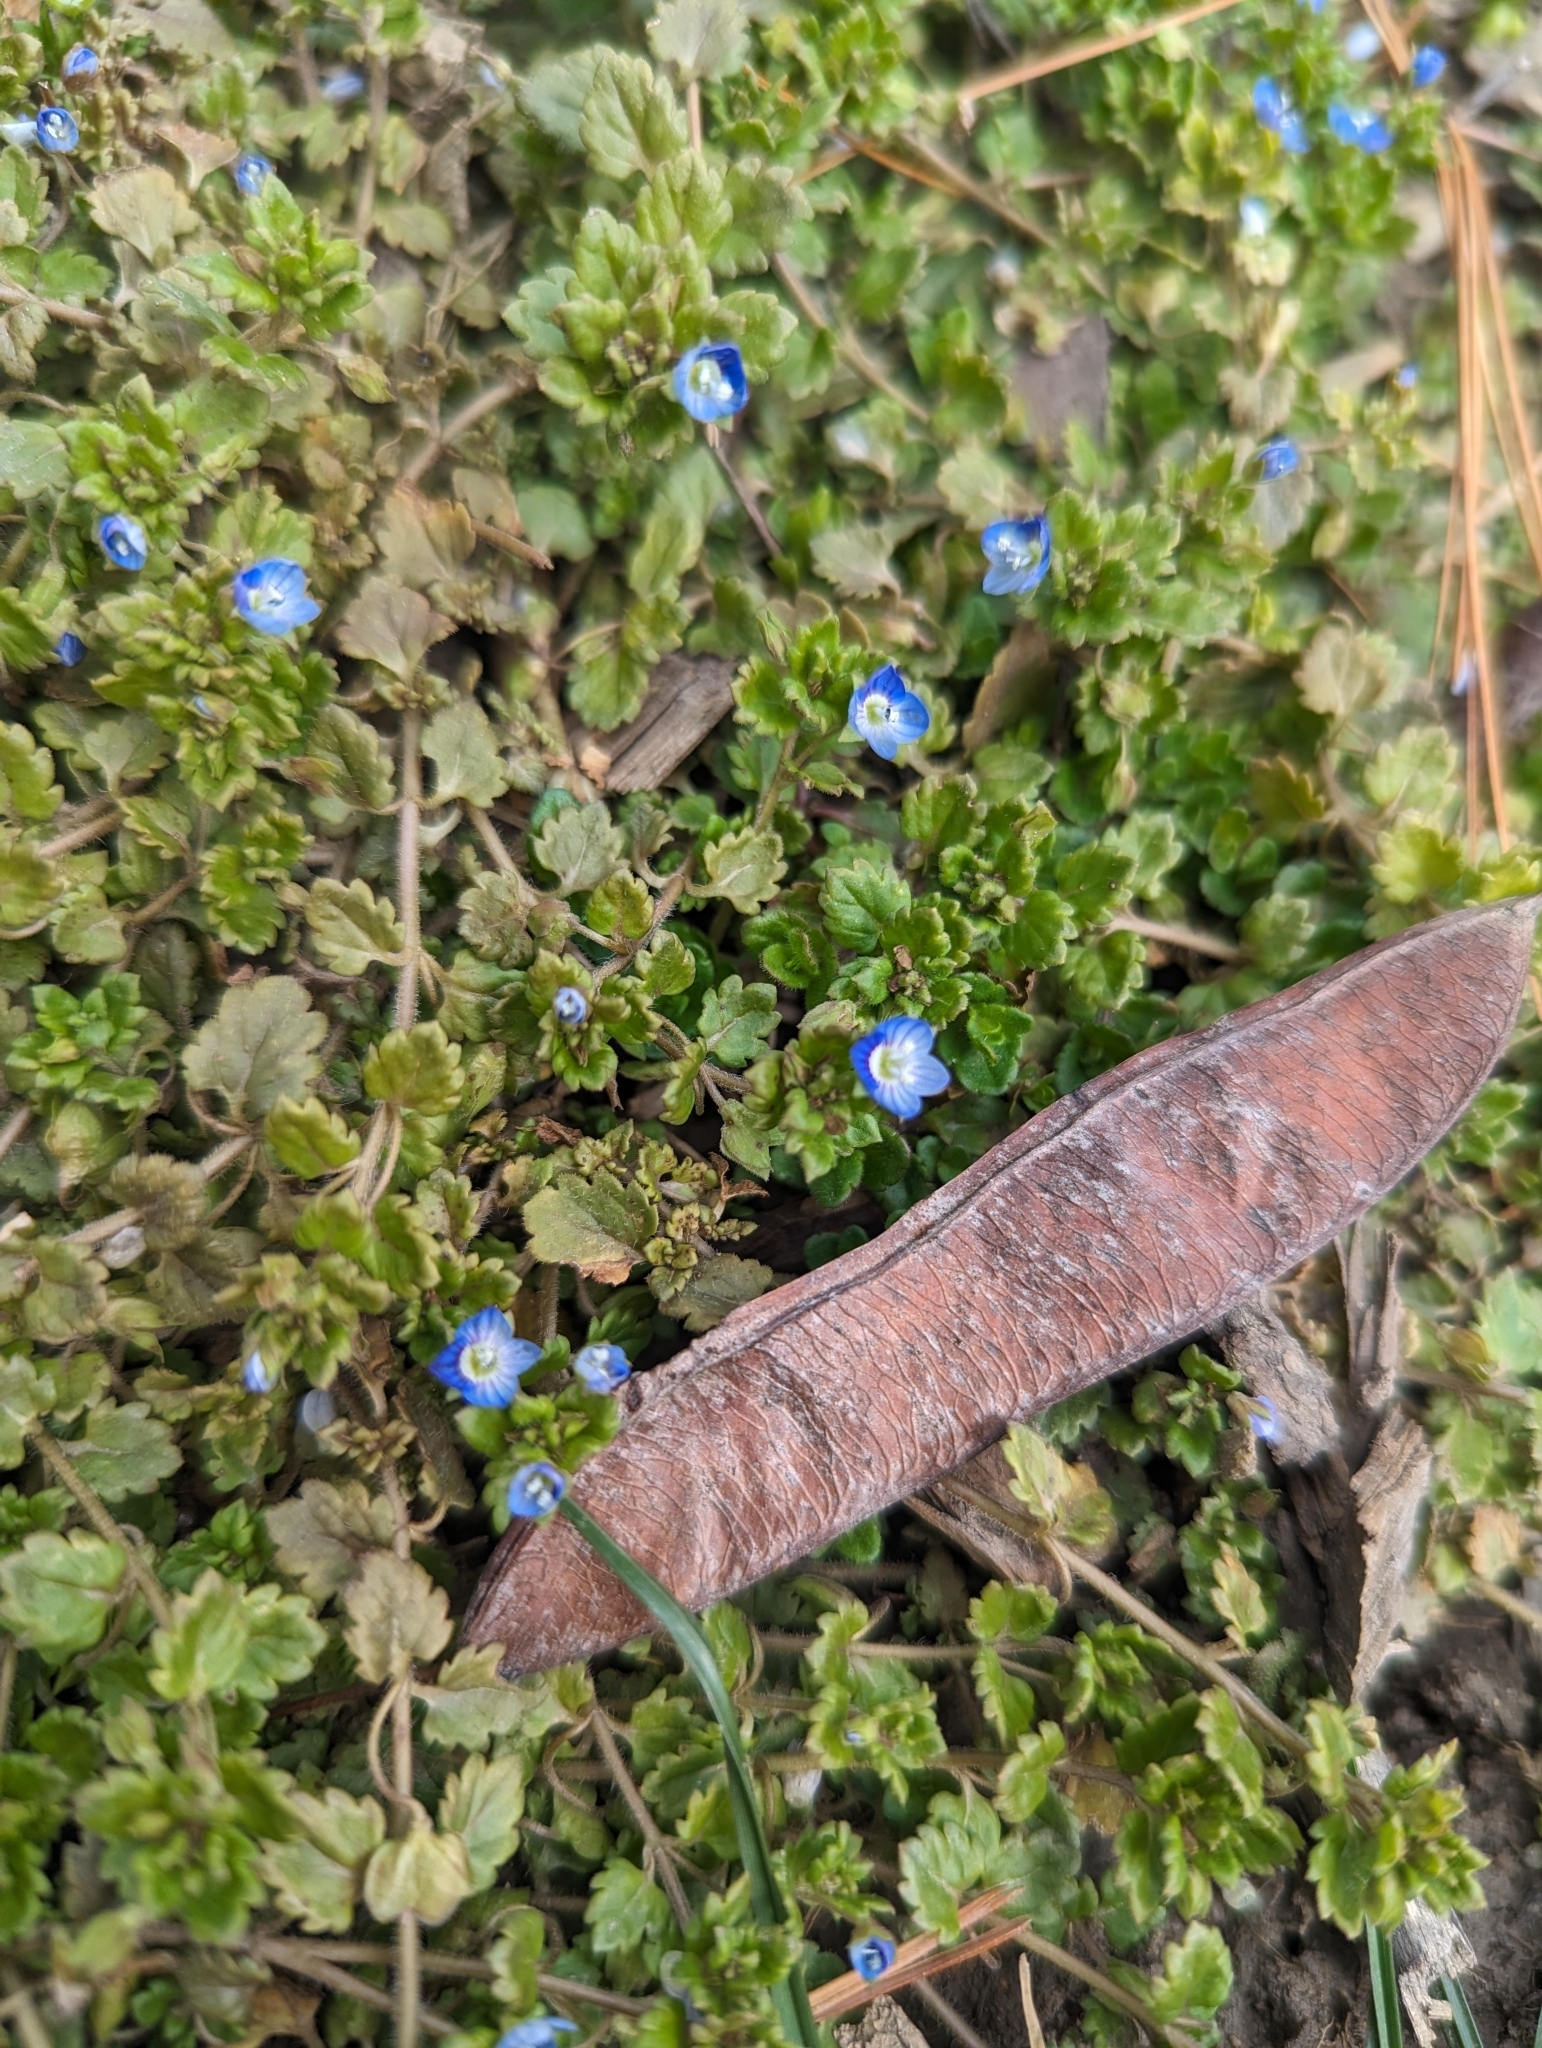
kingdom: Plantae
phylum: Tracheophyta
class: Magnoliopsida
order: Lamiales
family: Plantaginaceae
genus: Veronica
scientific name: Veronica polita
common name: Grey field-speedwell
